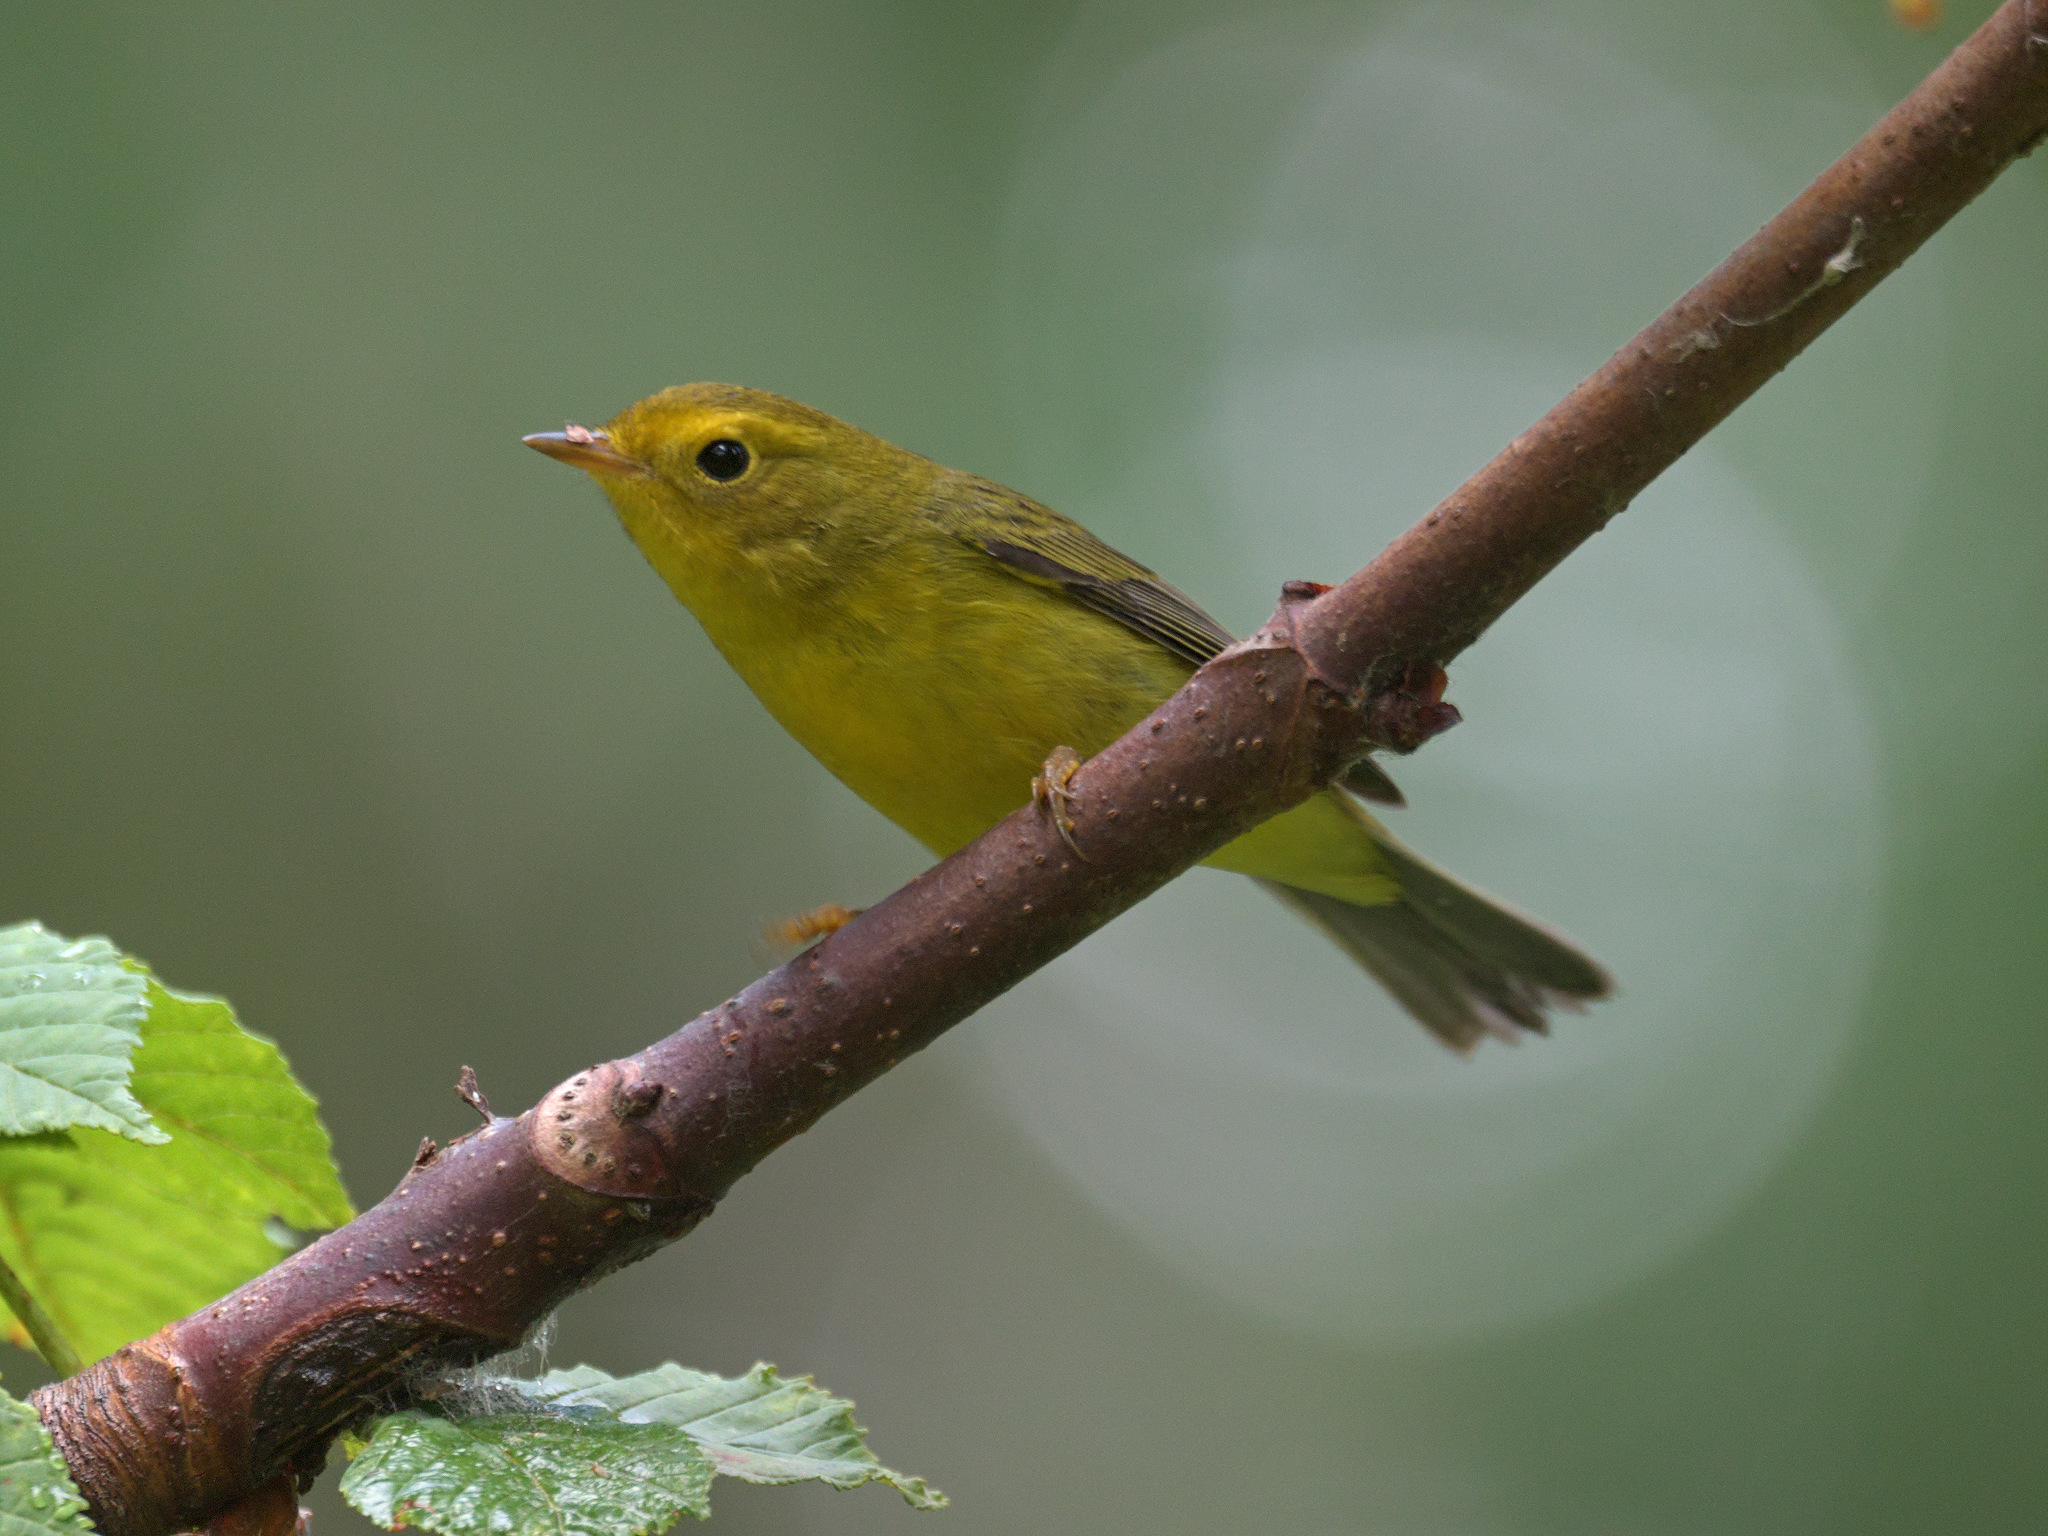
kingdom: Animalia
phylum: Chordata
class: Aves
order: Passeriformes
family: Parulidae
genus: Cardellina
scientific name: Cardellina pusilla
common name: Wilson's warbler
